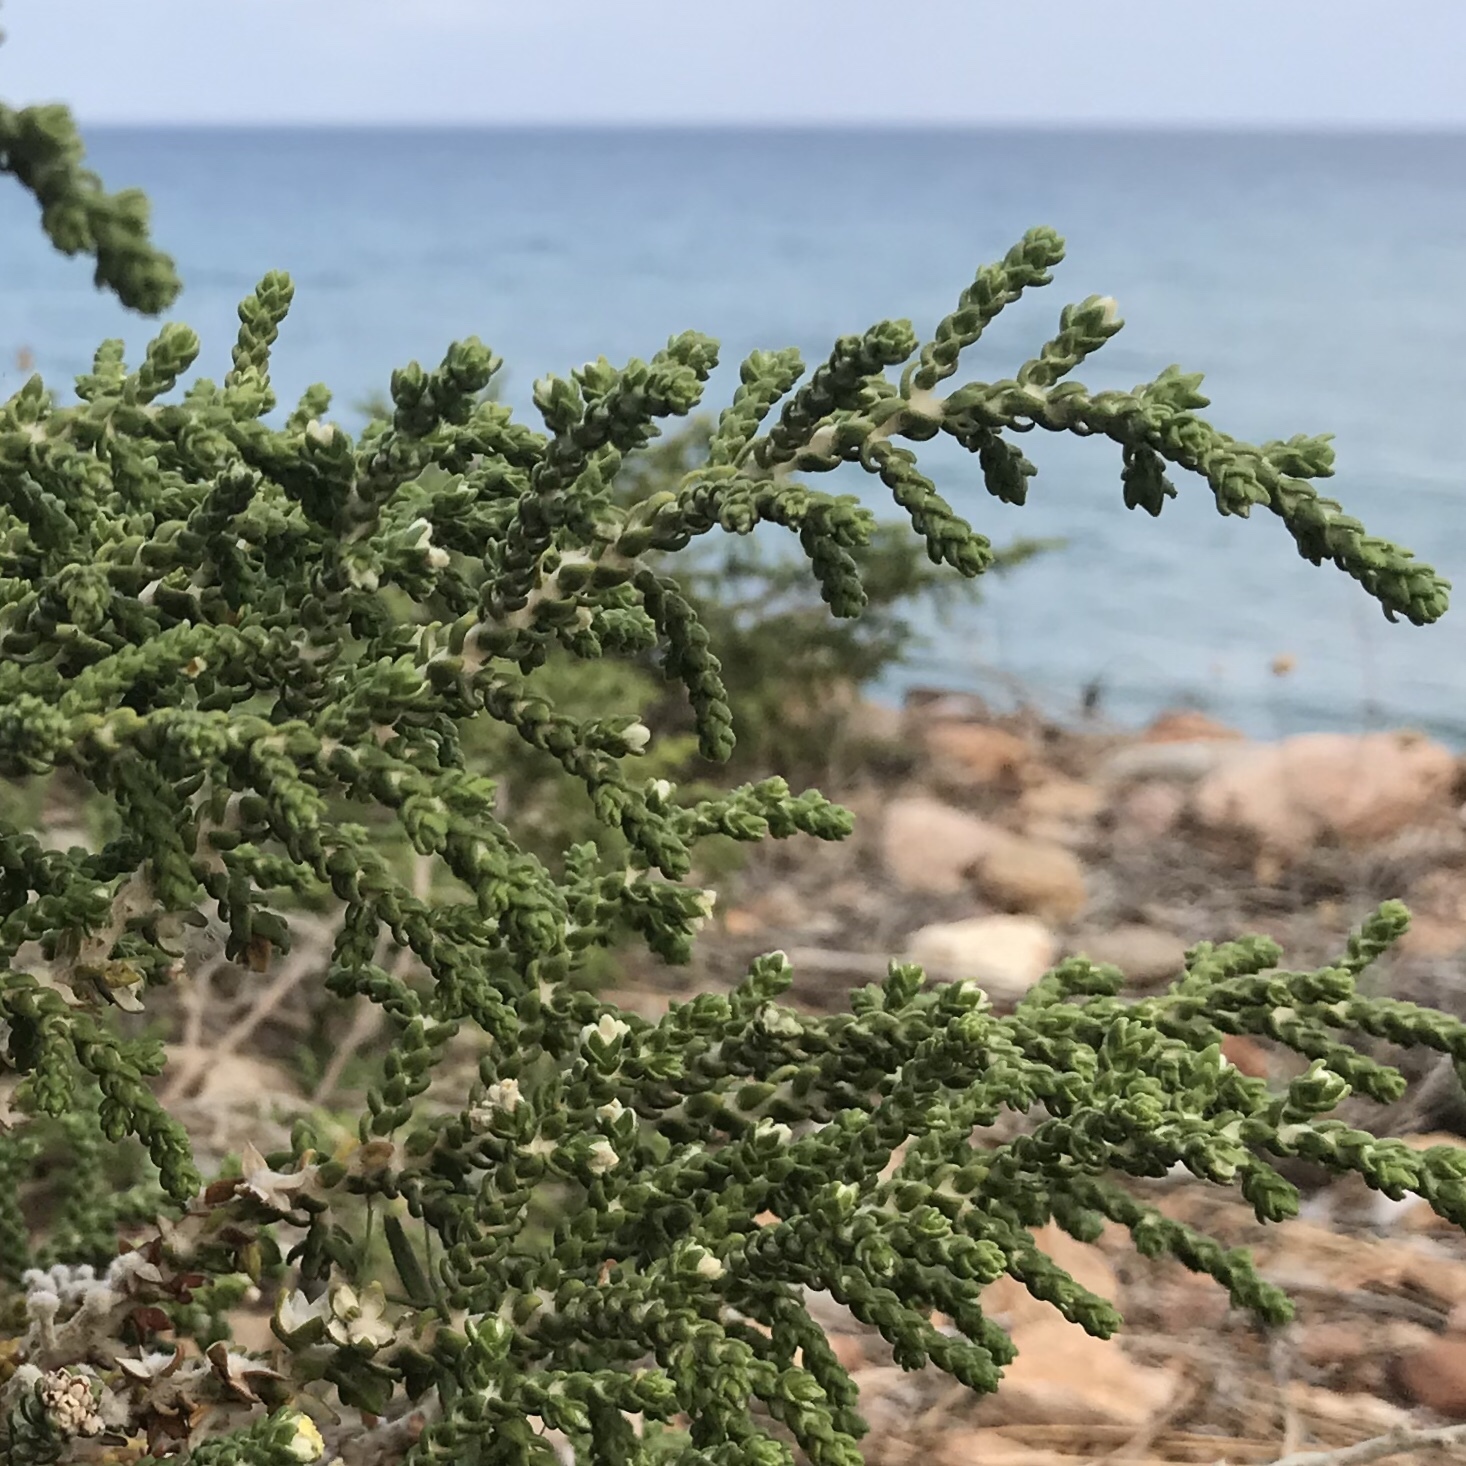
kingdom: Plantae
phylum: Tracheophyta
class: Magnoliopsida
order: Malvales
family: Thymelaeaceae
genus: Thymelaea
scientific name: Thymelaea hirsuta
